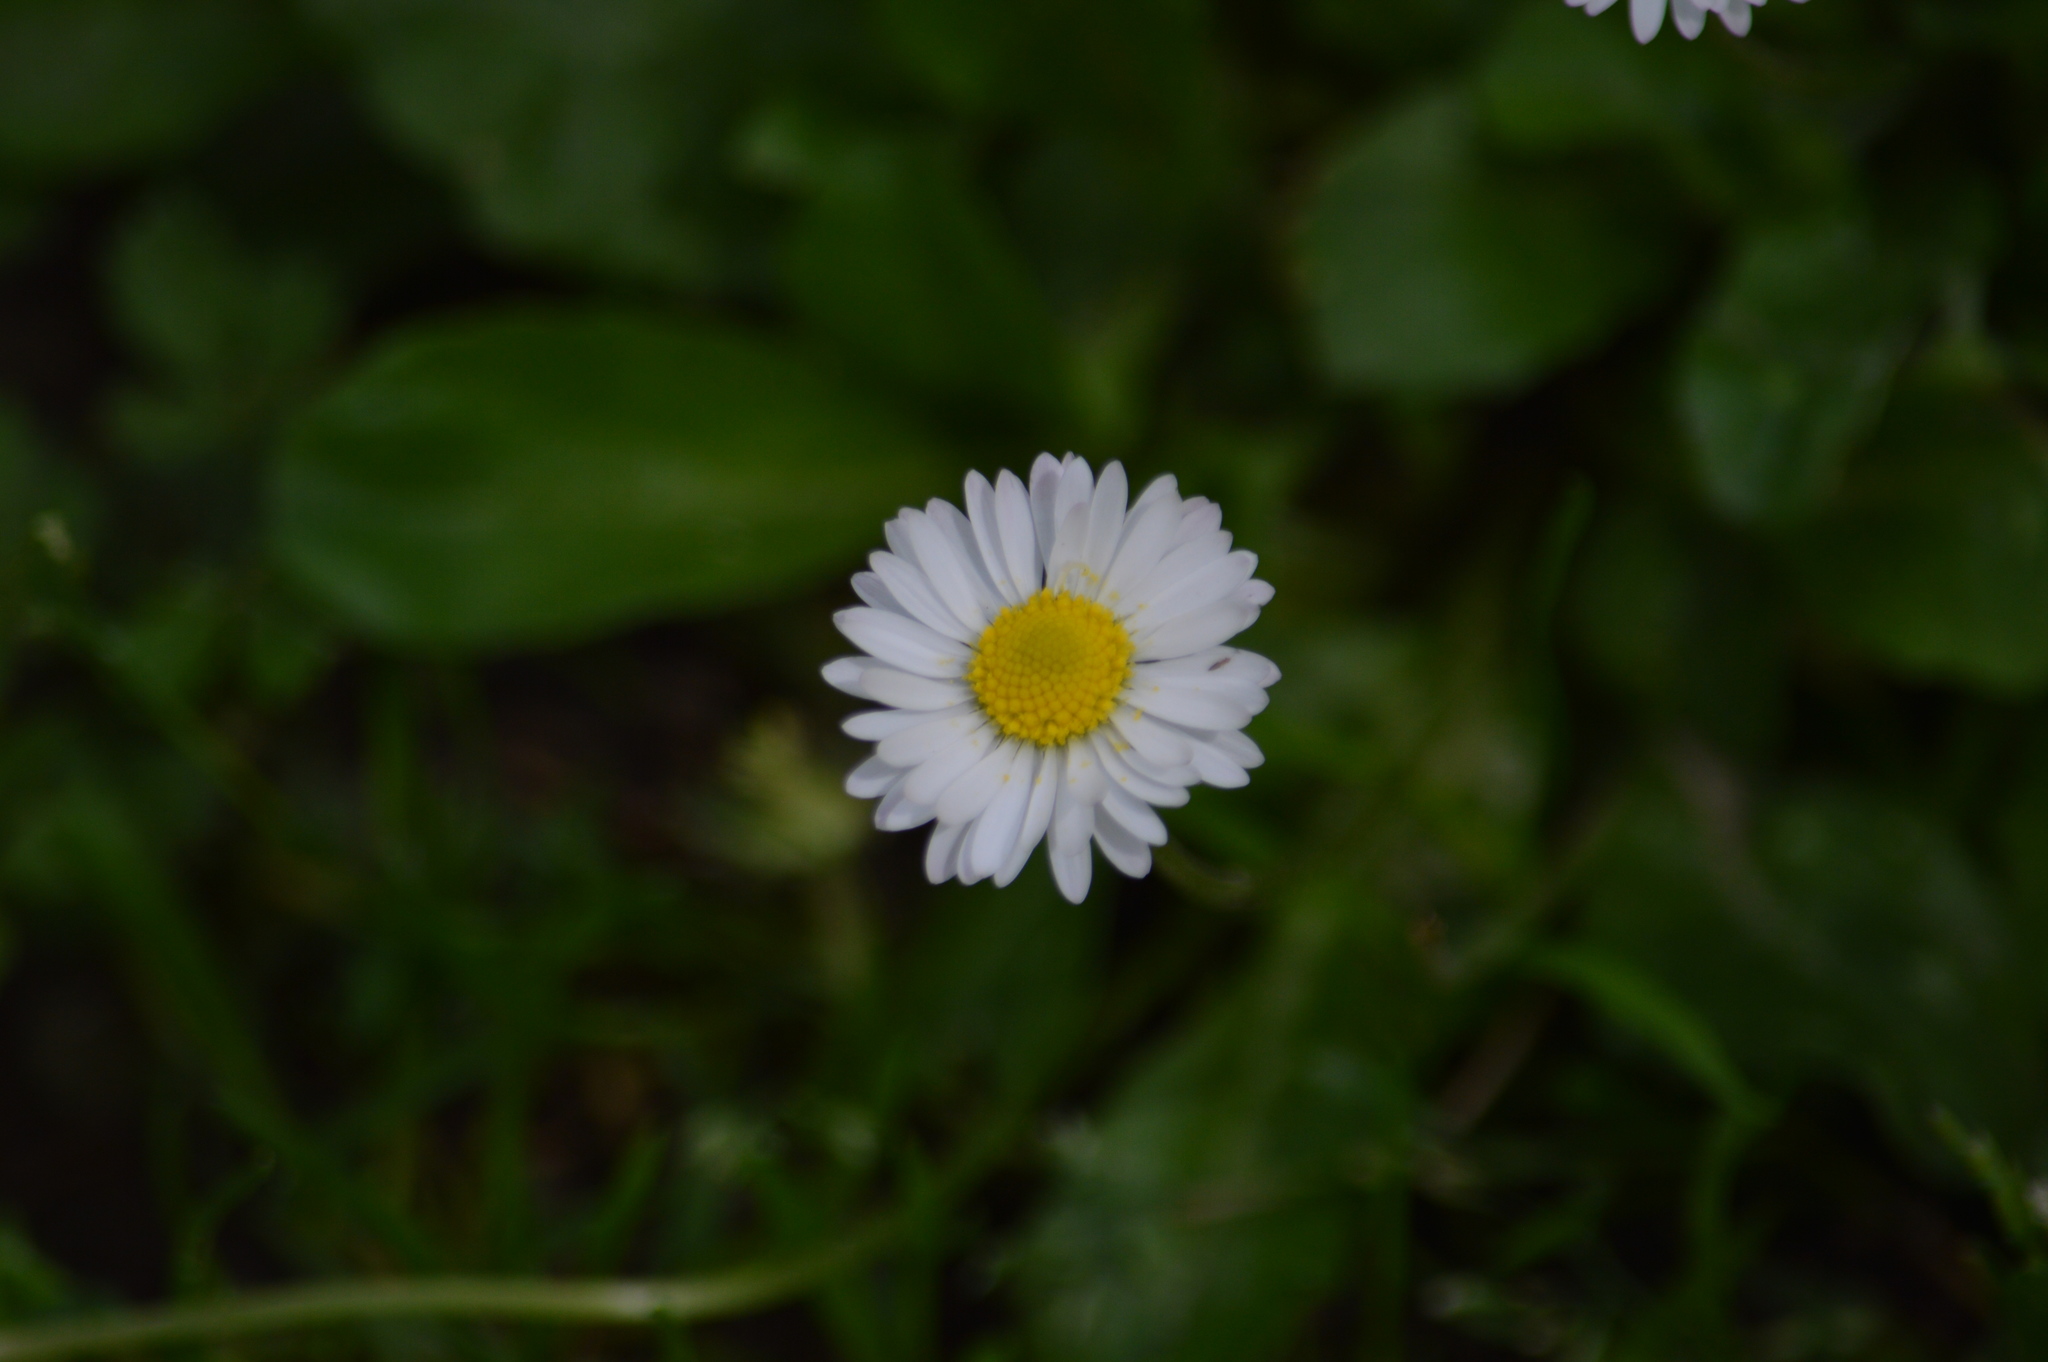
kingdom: Plantae
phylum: Tracheophyta
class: Magnoliopsida
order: Asterales
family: Asteraceae
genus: Bellis
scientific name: Bellis perennis
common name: Lawndaisy
